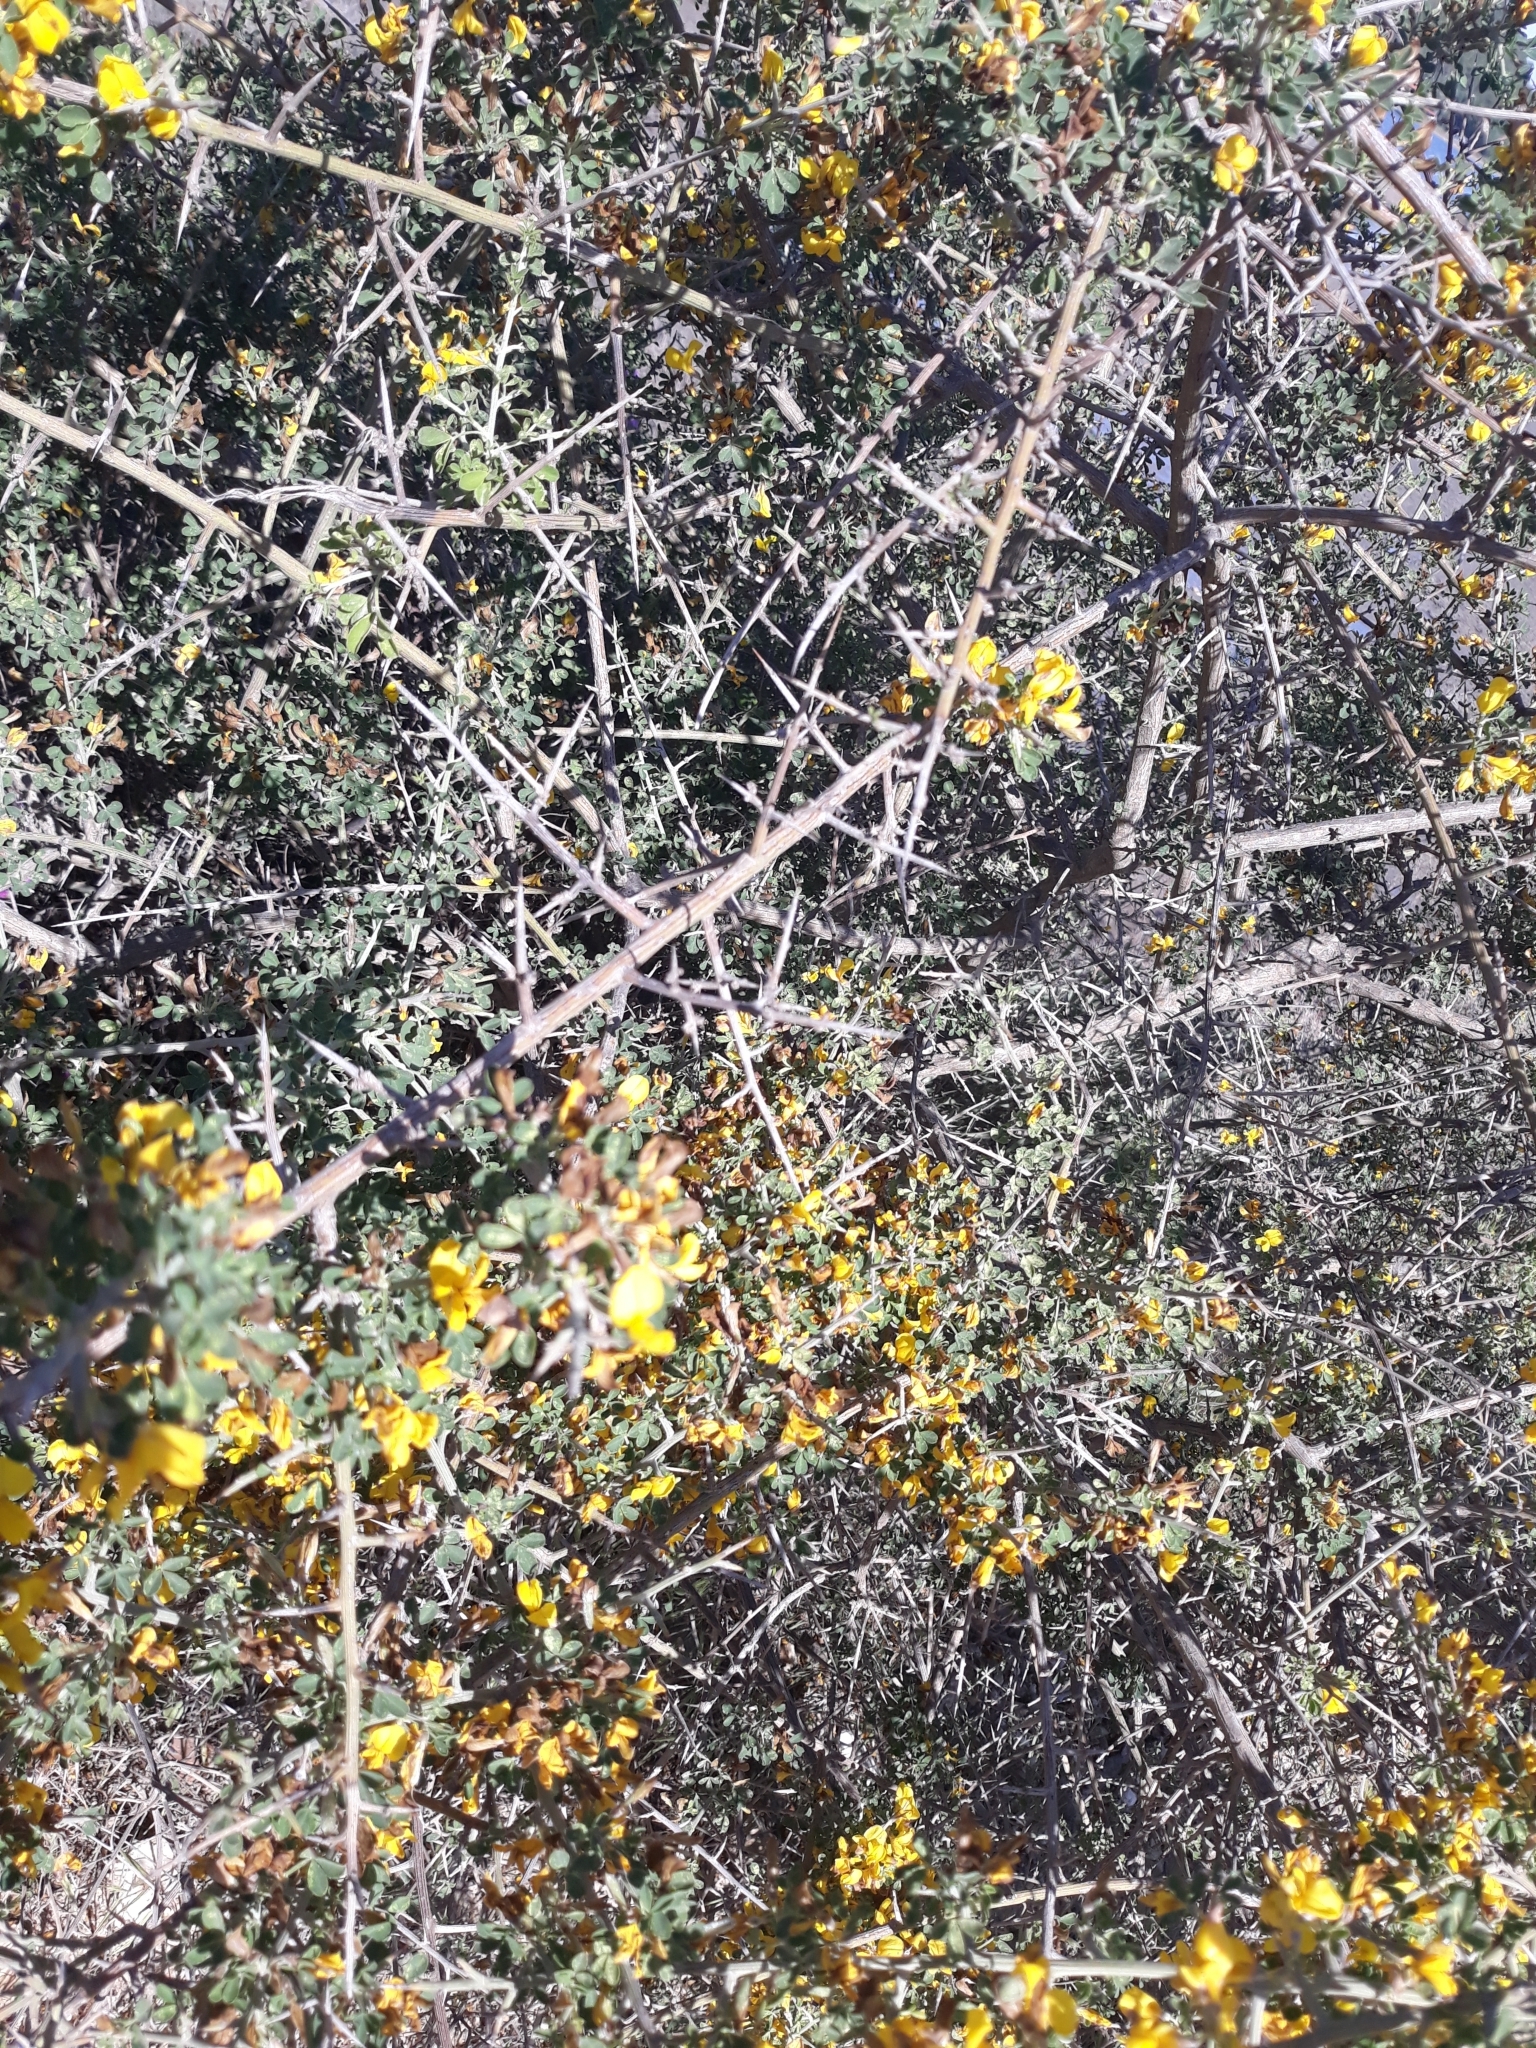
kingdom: Plantae
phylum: Tracheophyta
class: Magnoliopsida
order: Fabales
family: Fabaceae
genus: Cytisus
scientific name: Cytisus scoparius
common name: Scotch broom
